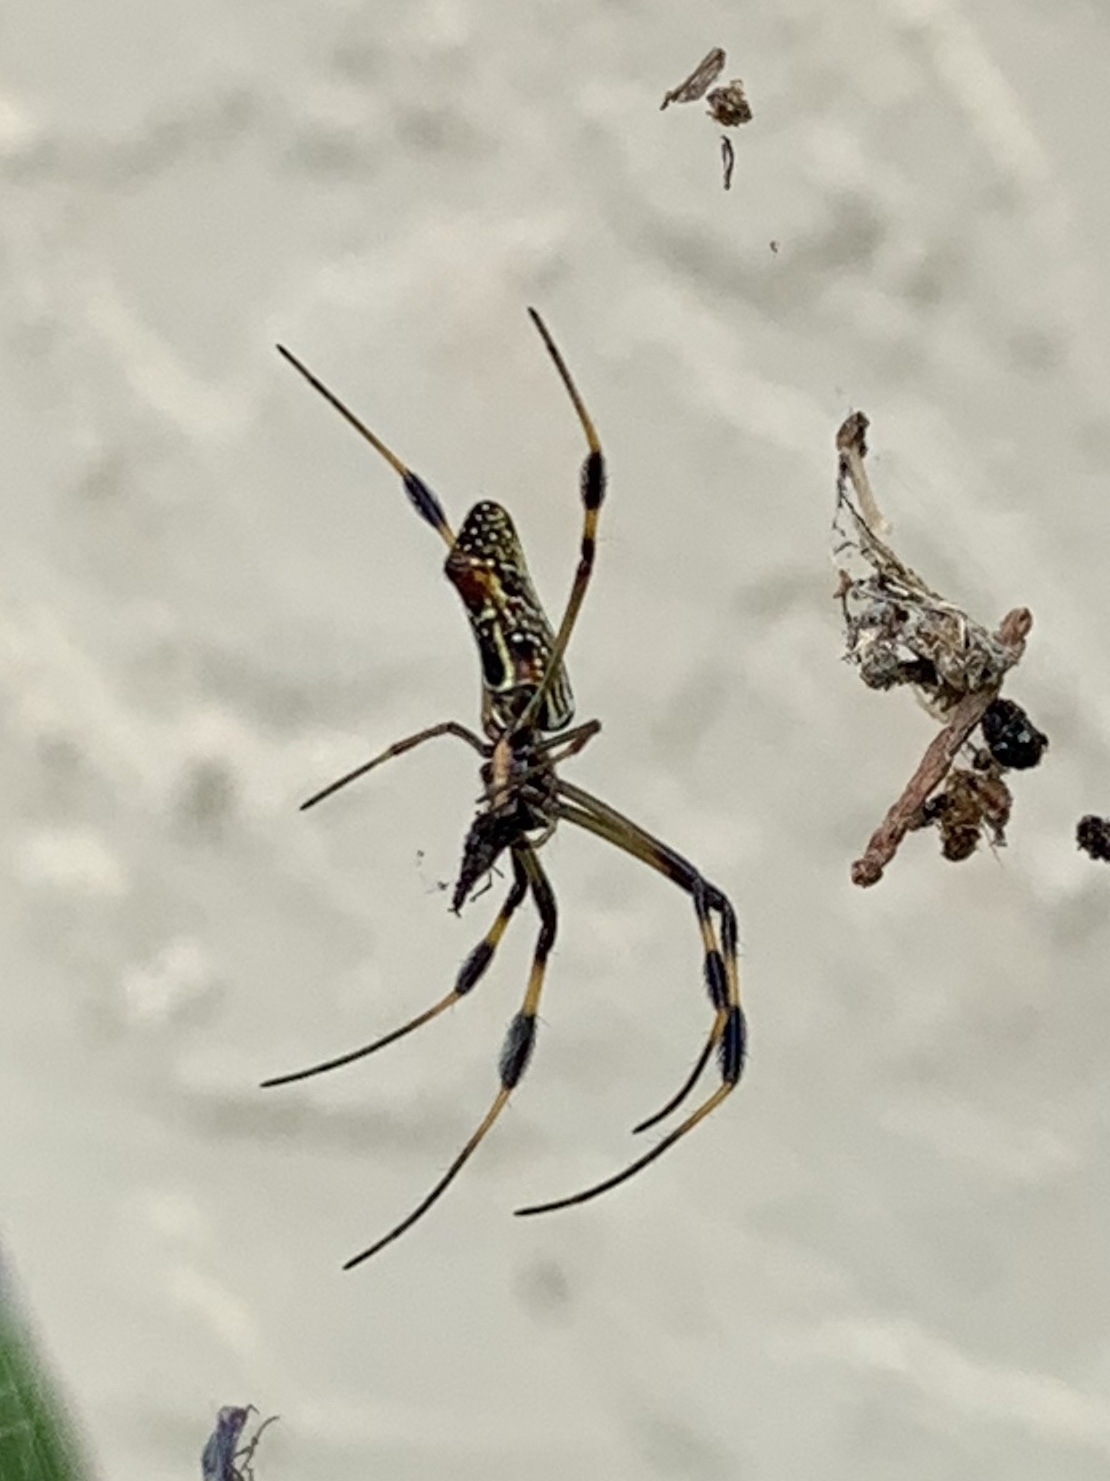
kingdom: Animalia
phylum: Arthropoda
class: Arachnida
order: Araneae
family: Araneidae
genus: Trichonephila
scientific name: Trichonephila clavipes
